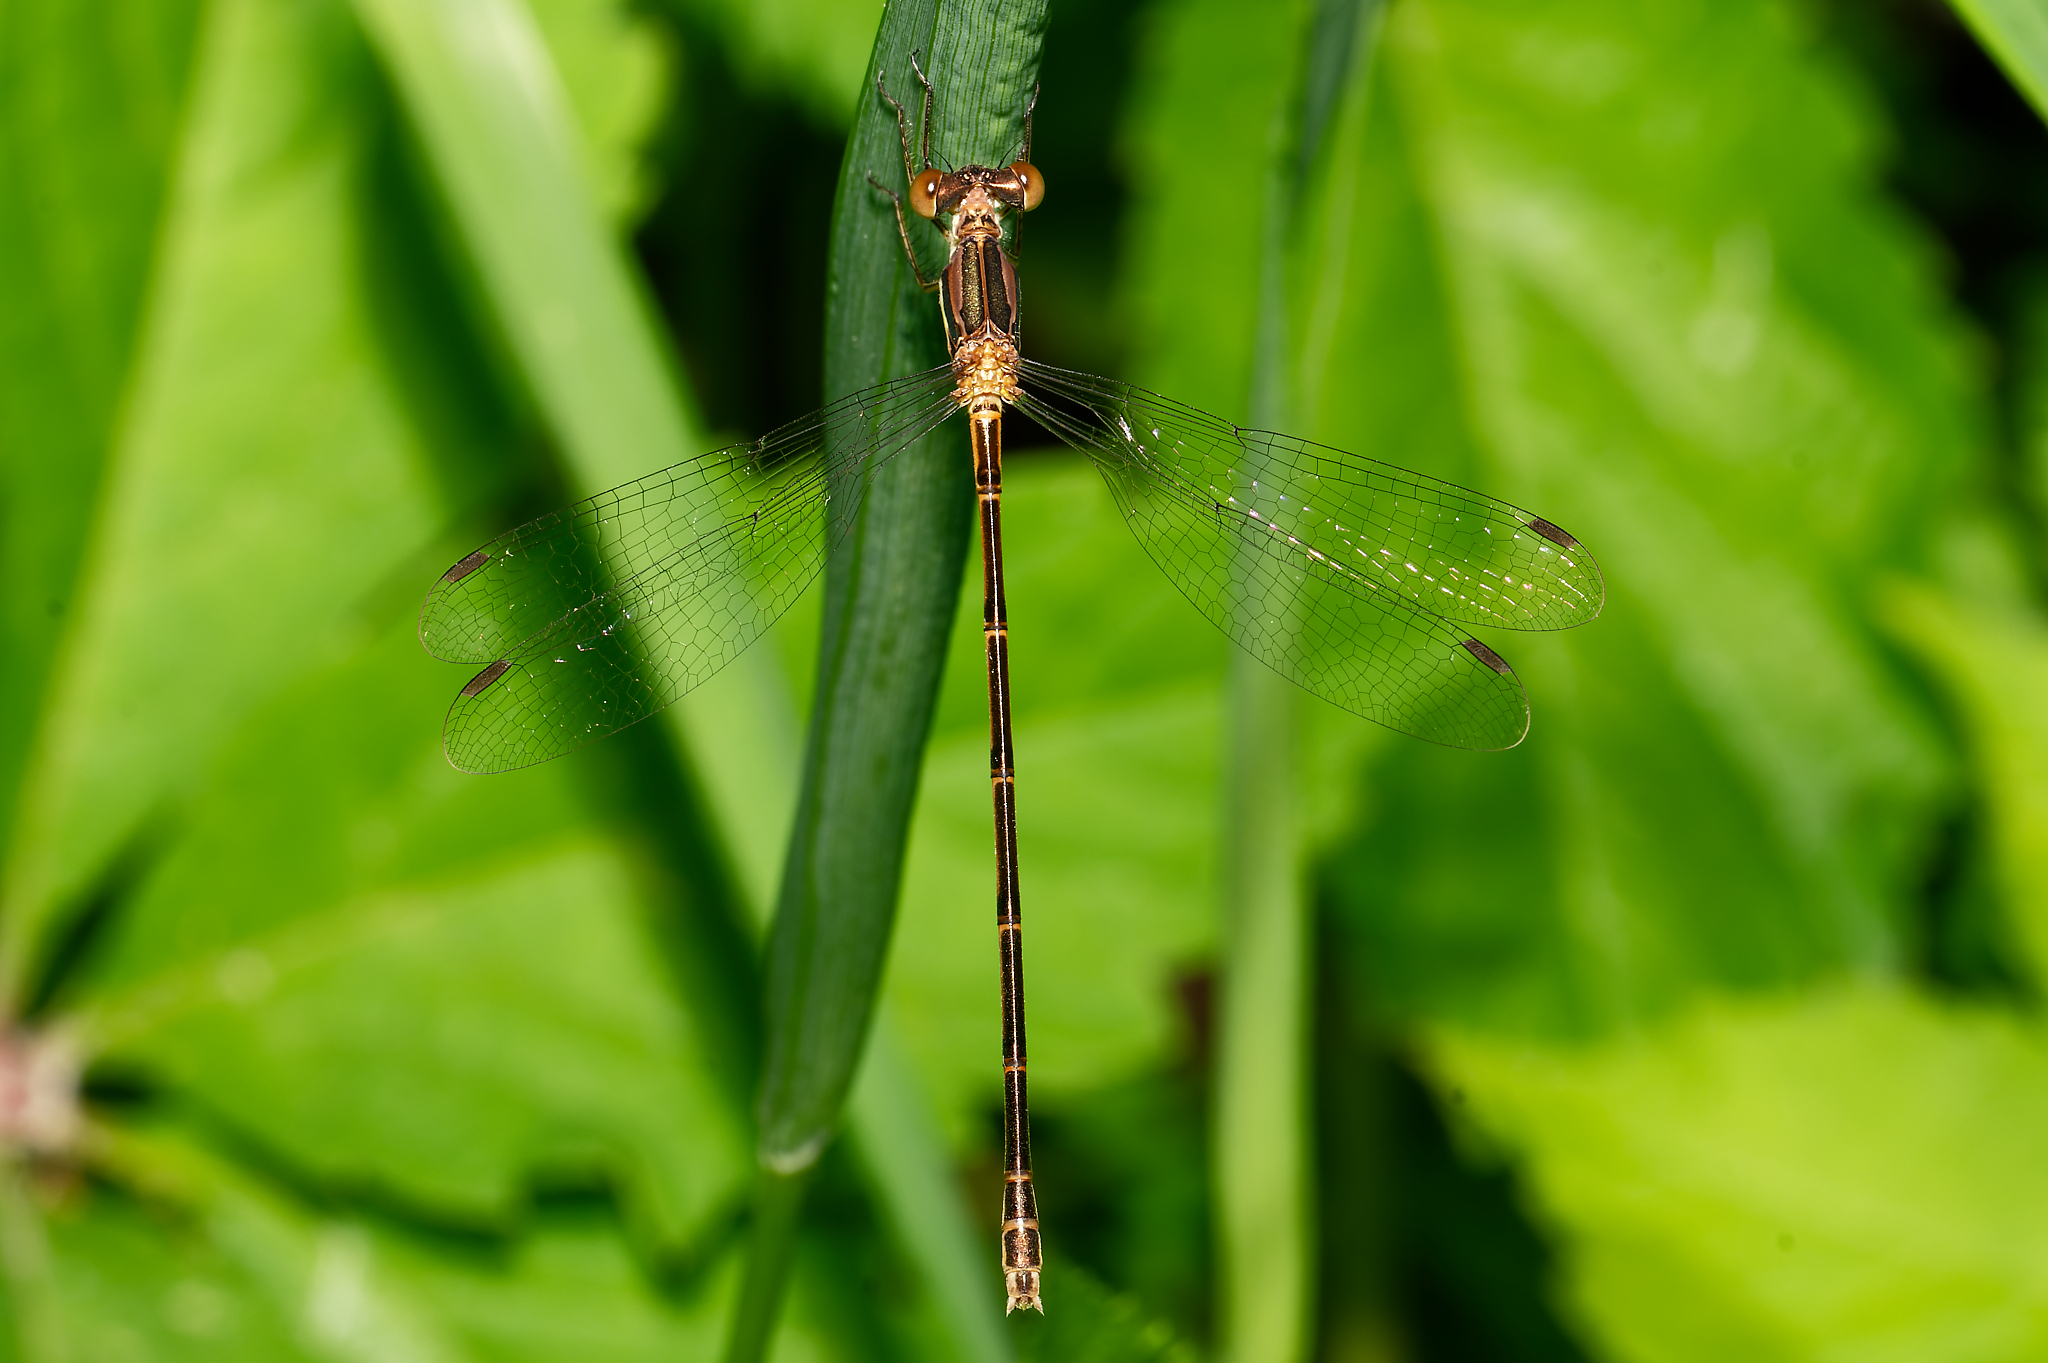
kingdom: Animalia
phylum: Arthropoda
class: Insecta
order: Odonata
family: Lestidae
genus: Lestes
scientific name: Lestes rectangularis
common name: Slender spreadwing
